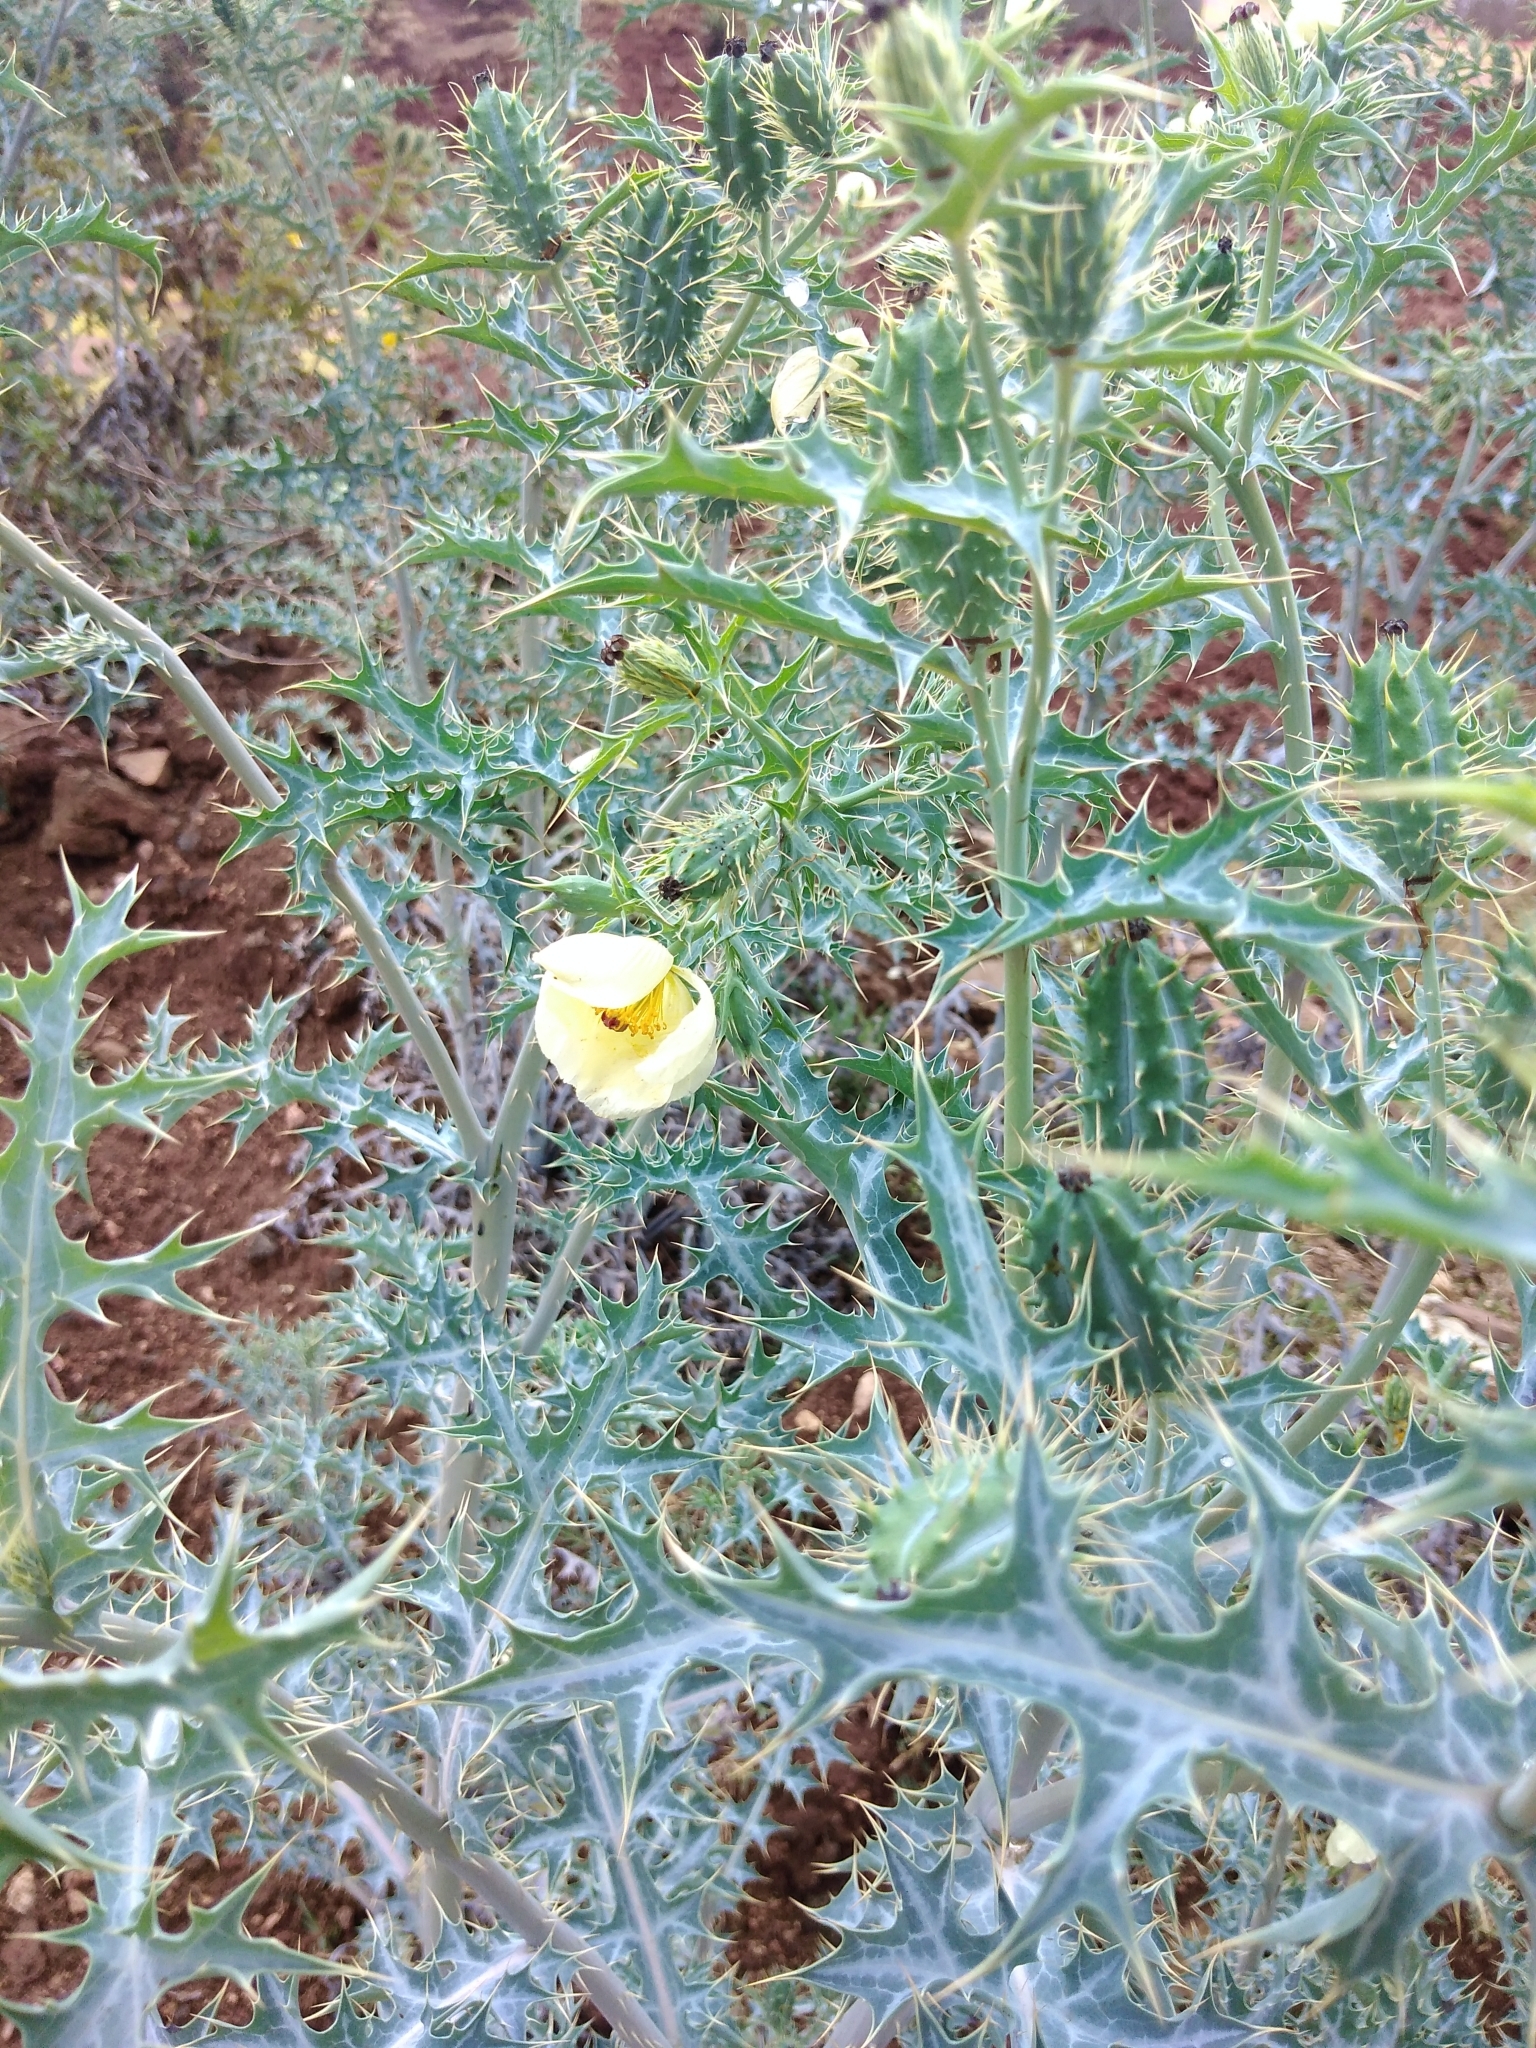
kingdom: Plantae
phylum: Tracheophyta
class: Magnoliopsida
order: Ranunculales
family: Papaveraceae
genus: Argemone
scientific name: Argemone ochroleuca
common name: White-flower mexican-poppy
